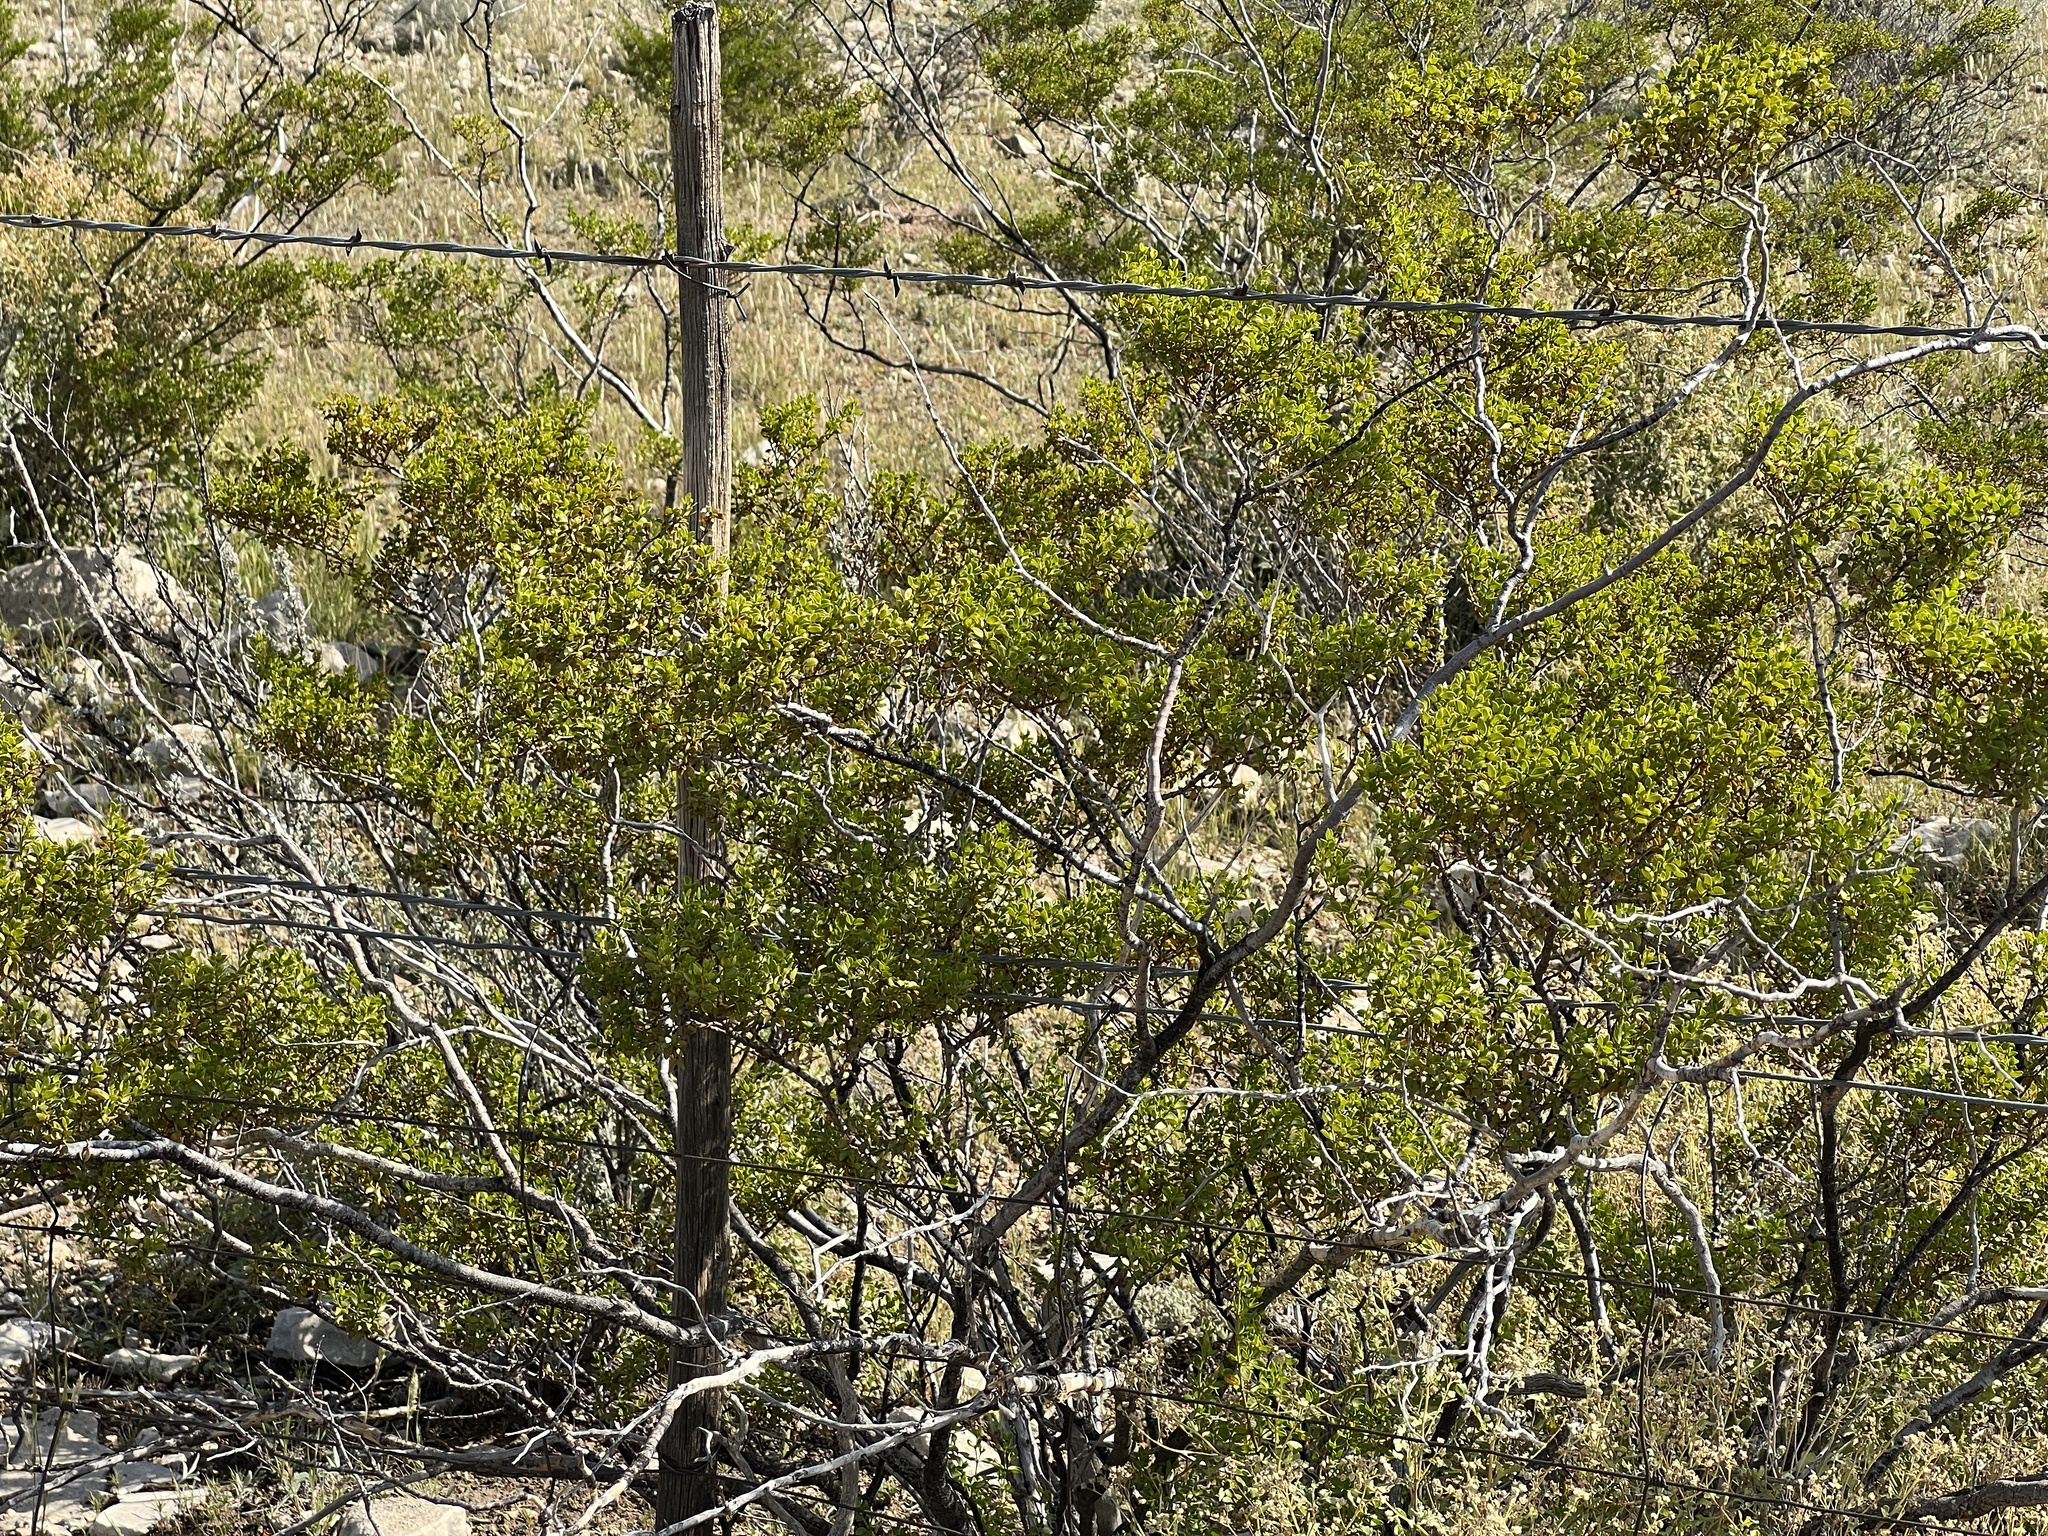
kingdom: Plantae
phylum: Tracheophyta
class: Magnoliopsida
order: Zygophyllales
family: Zygophyllaceae
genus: Larrea
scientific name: Larrea tridentata
